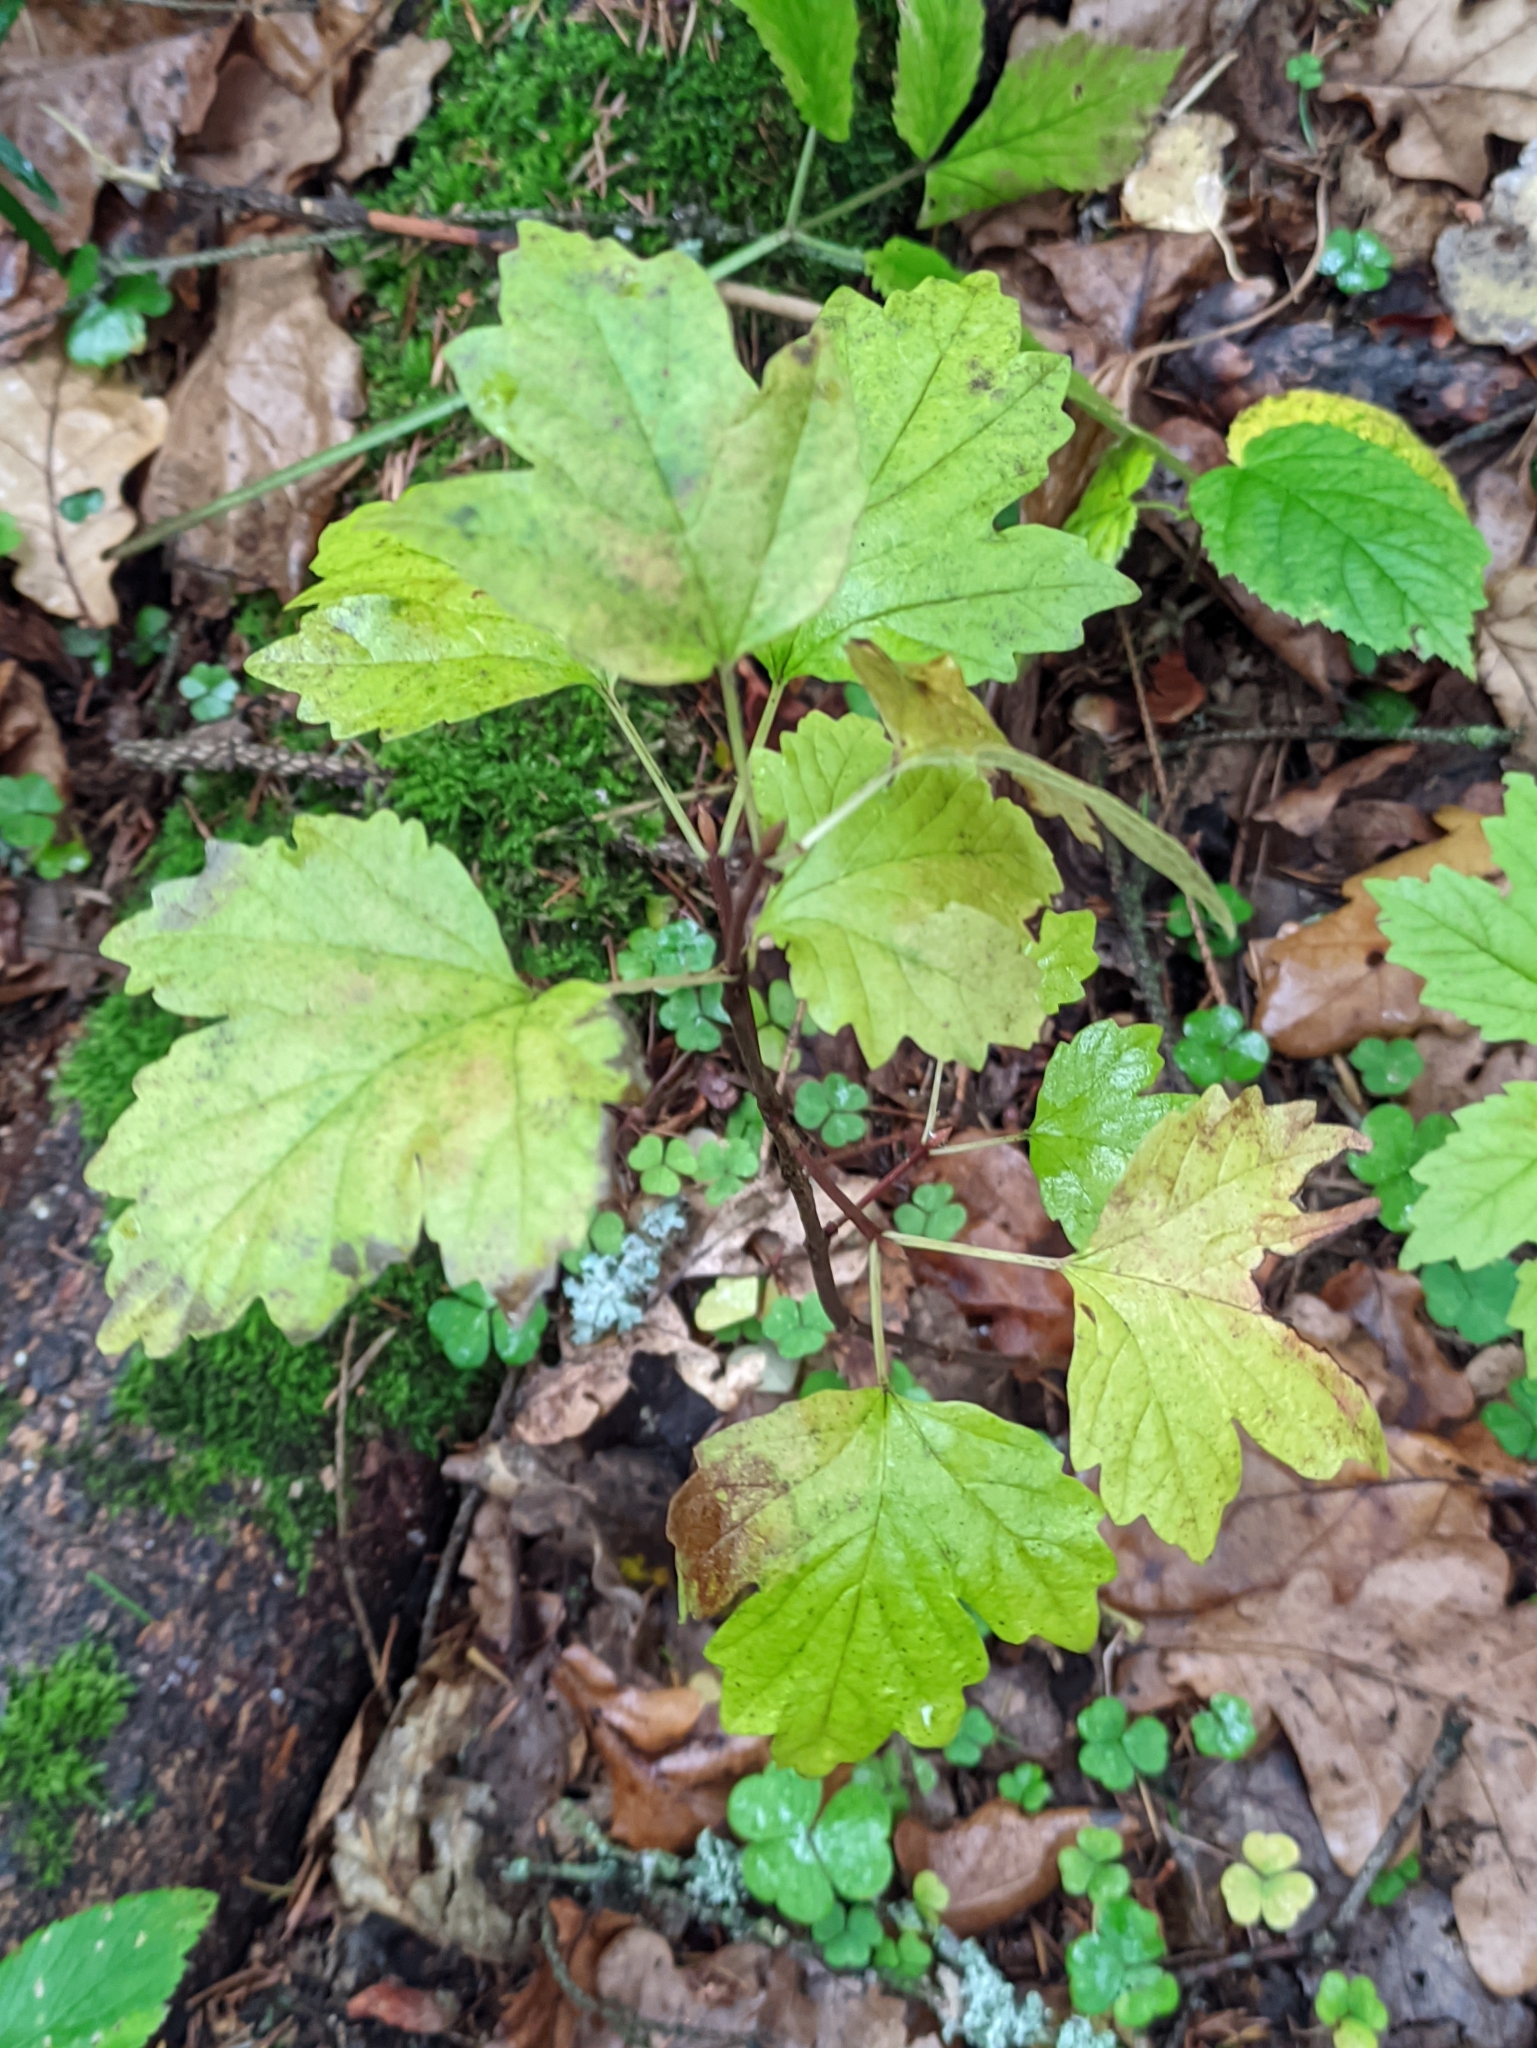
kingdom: Plantae
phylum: Tracheophyta
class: Magnoliopsida
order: Dipsacales
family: Viburnaceae
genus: Viburnum
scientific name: Viburnum opulus
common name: Guelder-rose
